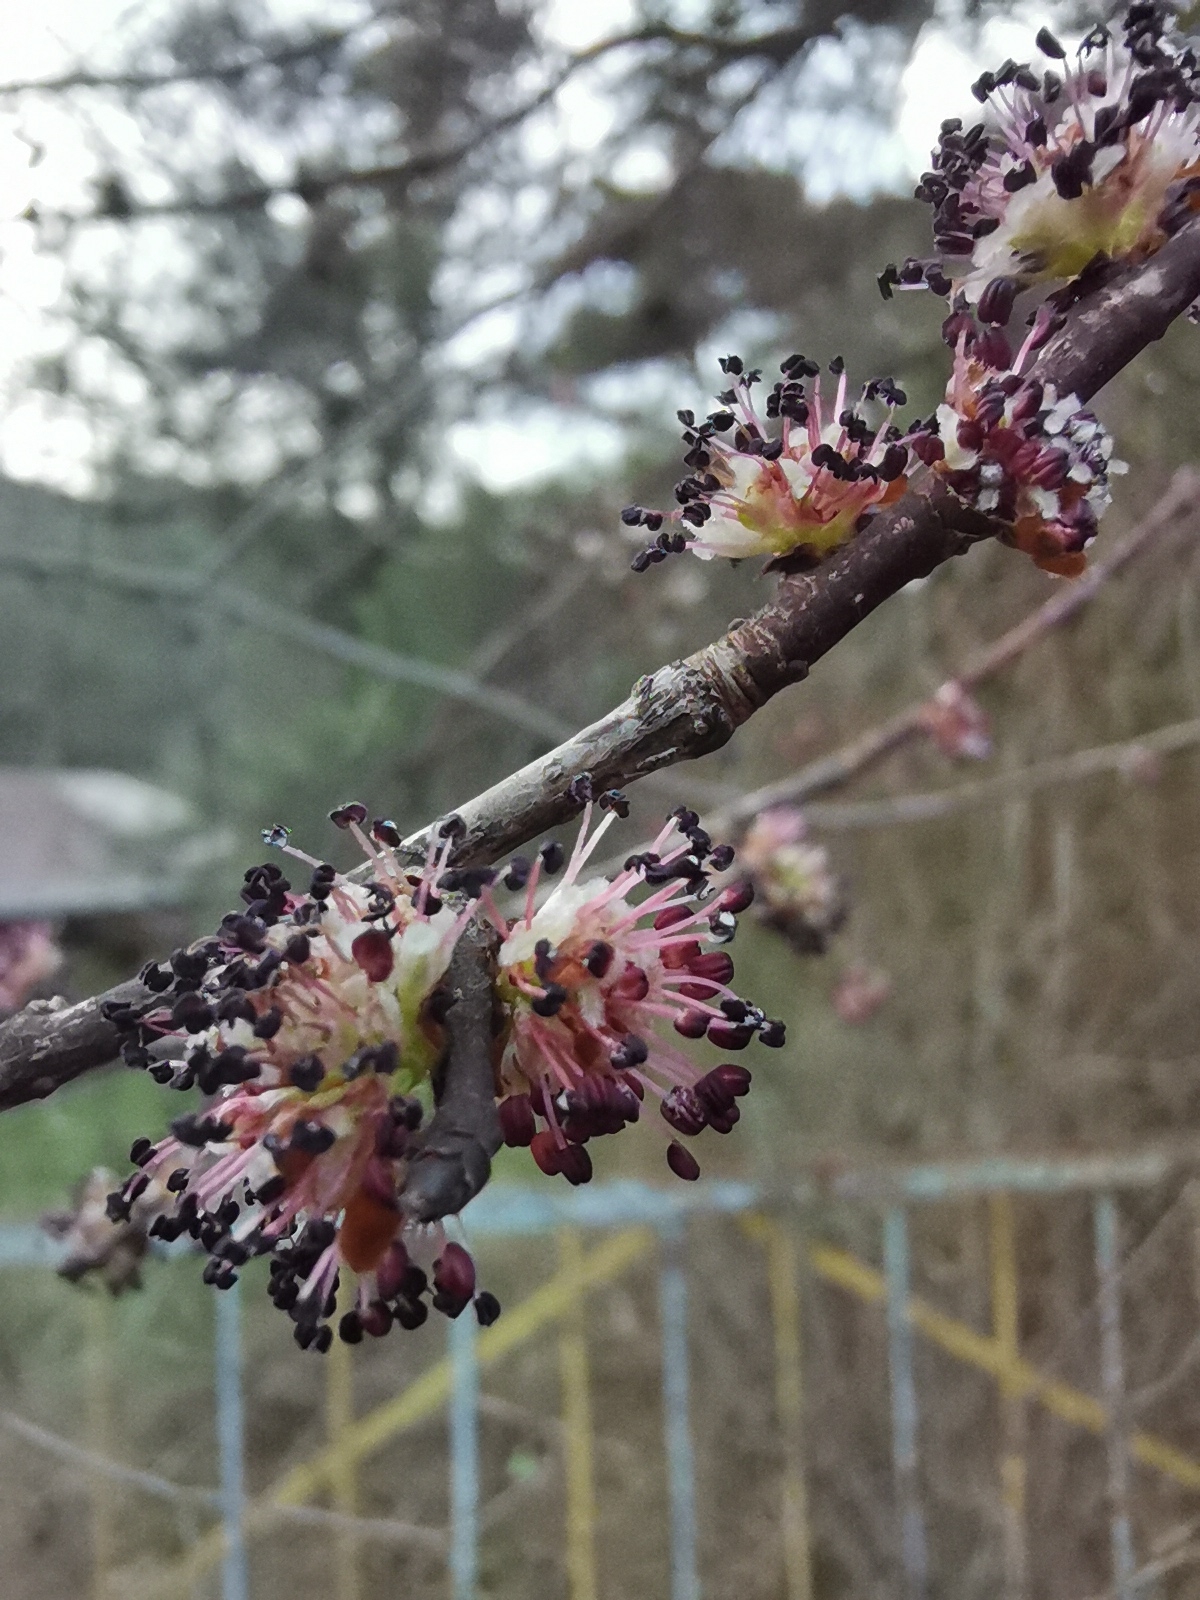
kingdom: Plantae
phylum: Tracheophyta
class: Magnoliopsida
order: Rosales
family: Ulmaceae
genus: Ulmus
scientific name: Ulmus minor
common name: Small-leaved elm
